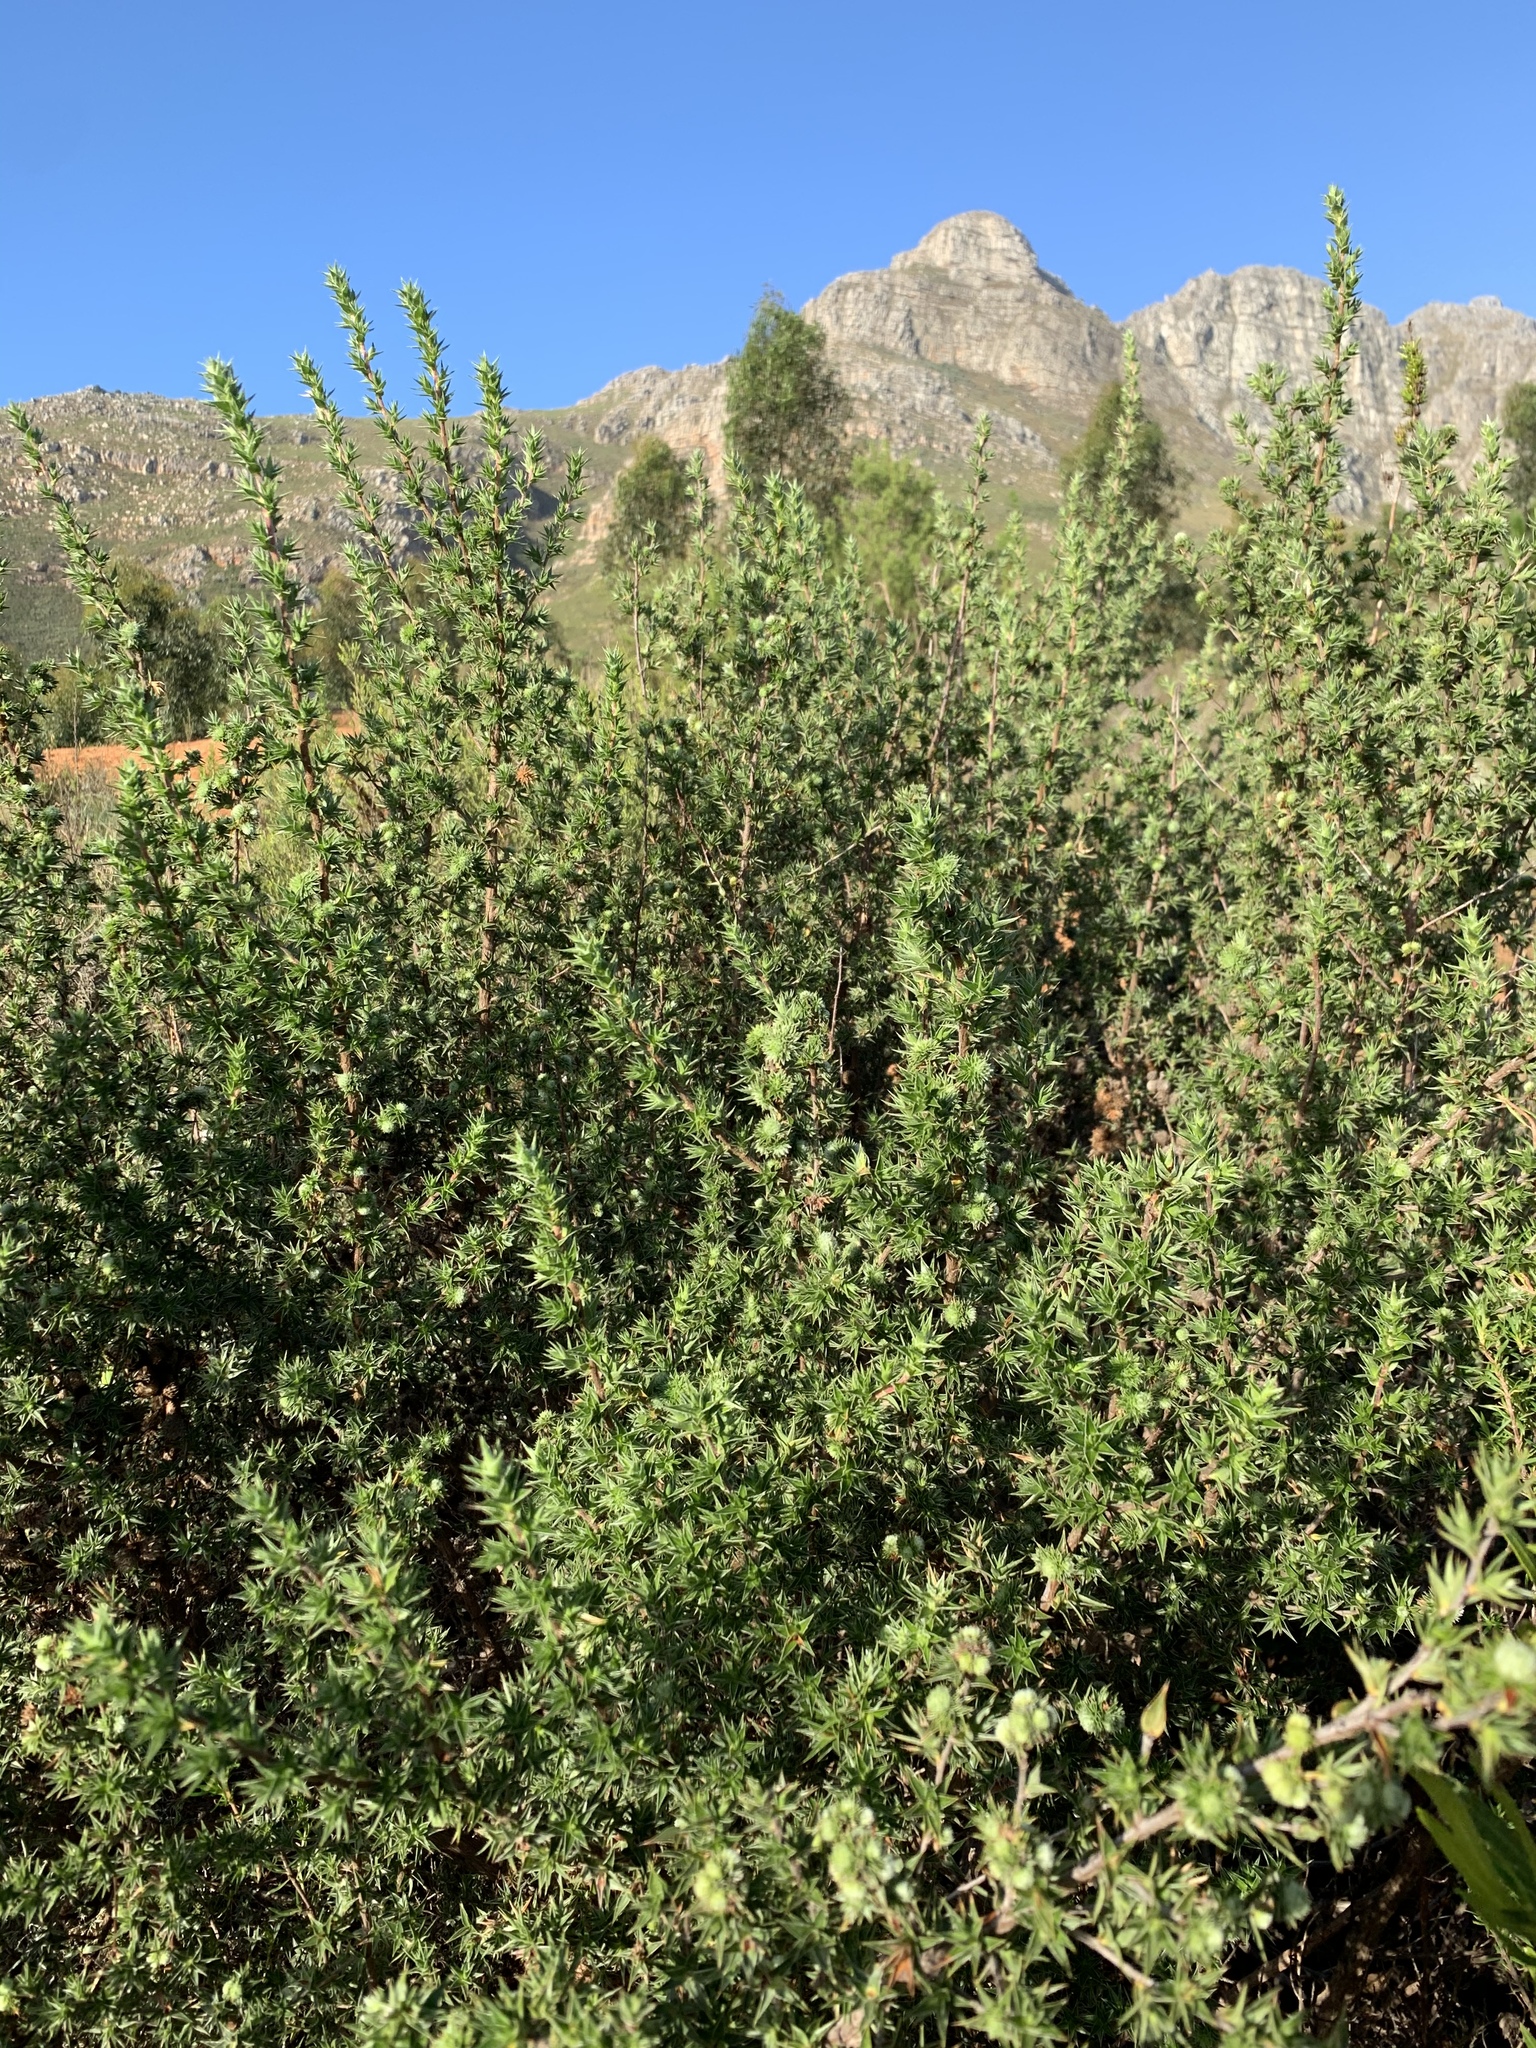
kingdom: Plantae
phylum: Tracheophyta
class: Magnoliopsida
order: Rosales
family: Rosaceae
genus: Cliffortia
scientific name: Cliffortia ruscifolia
